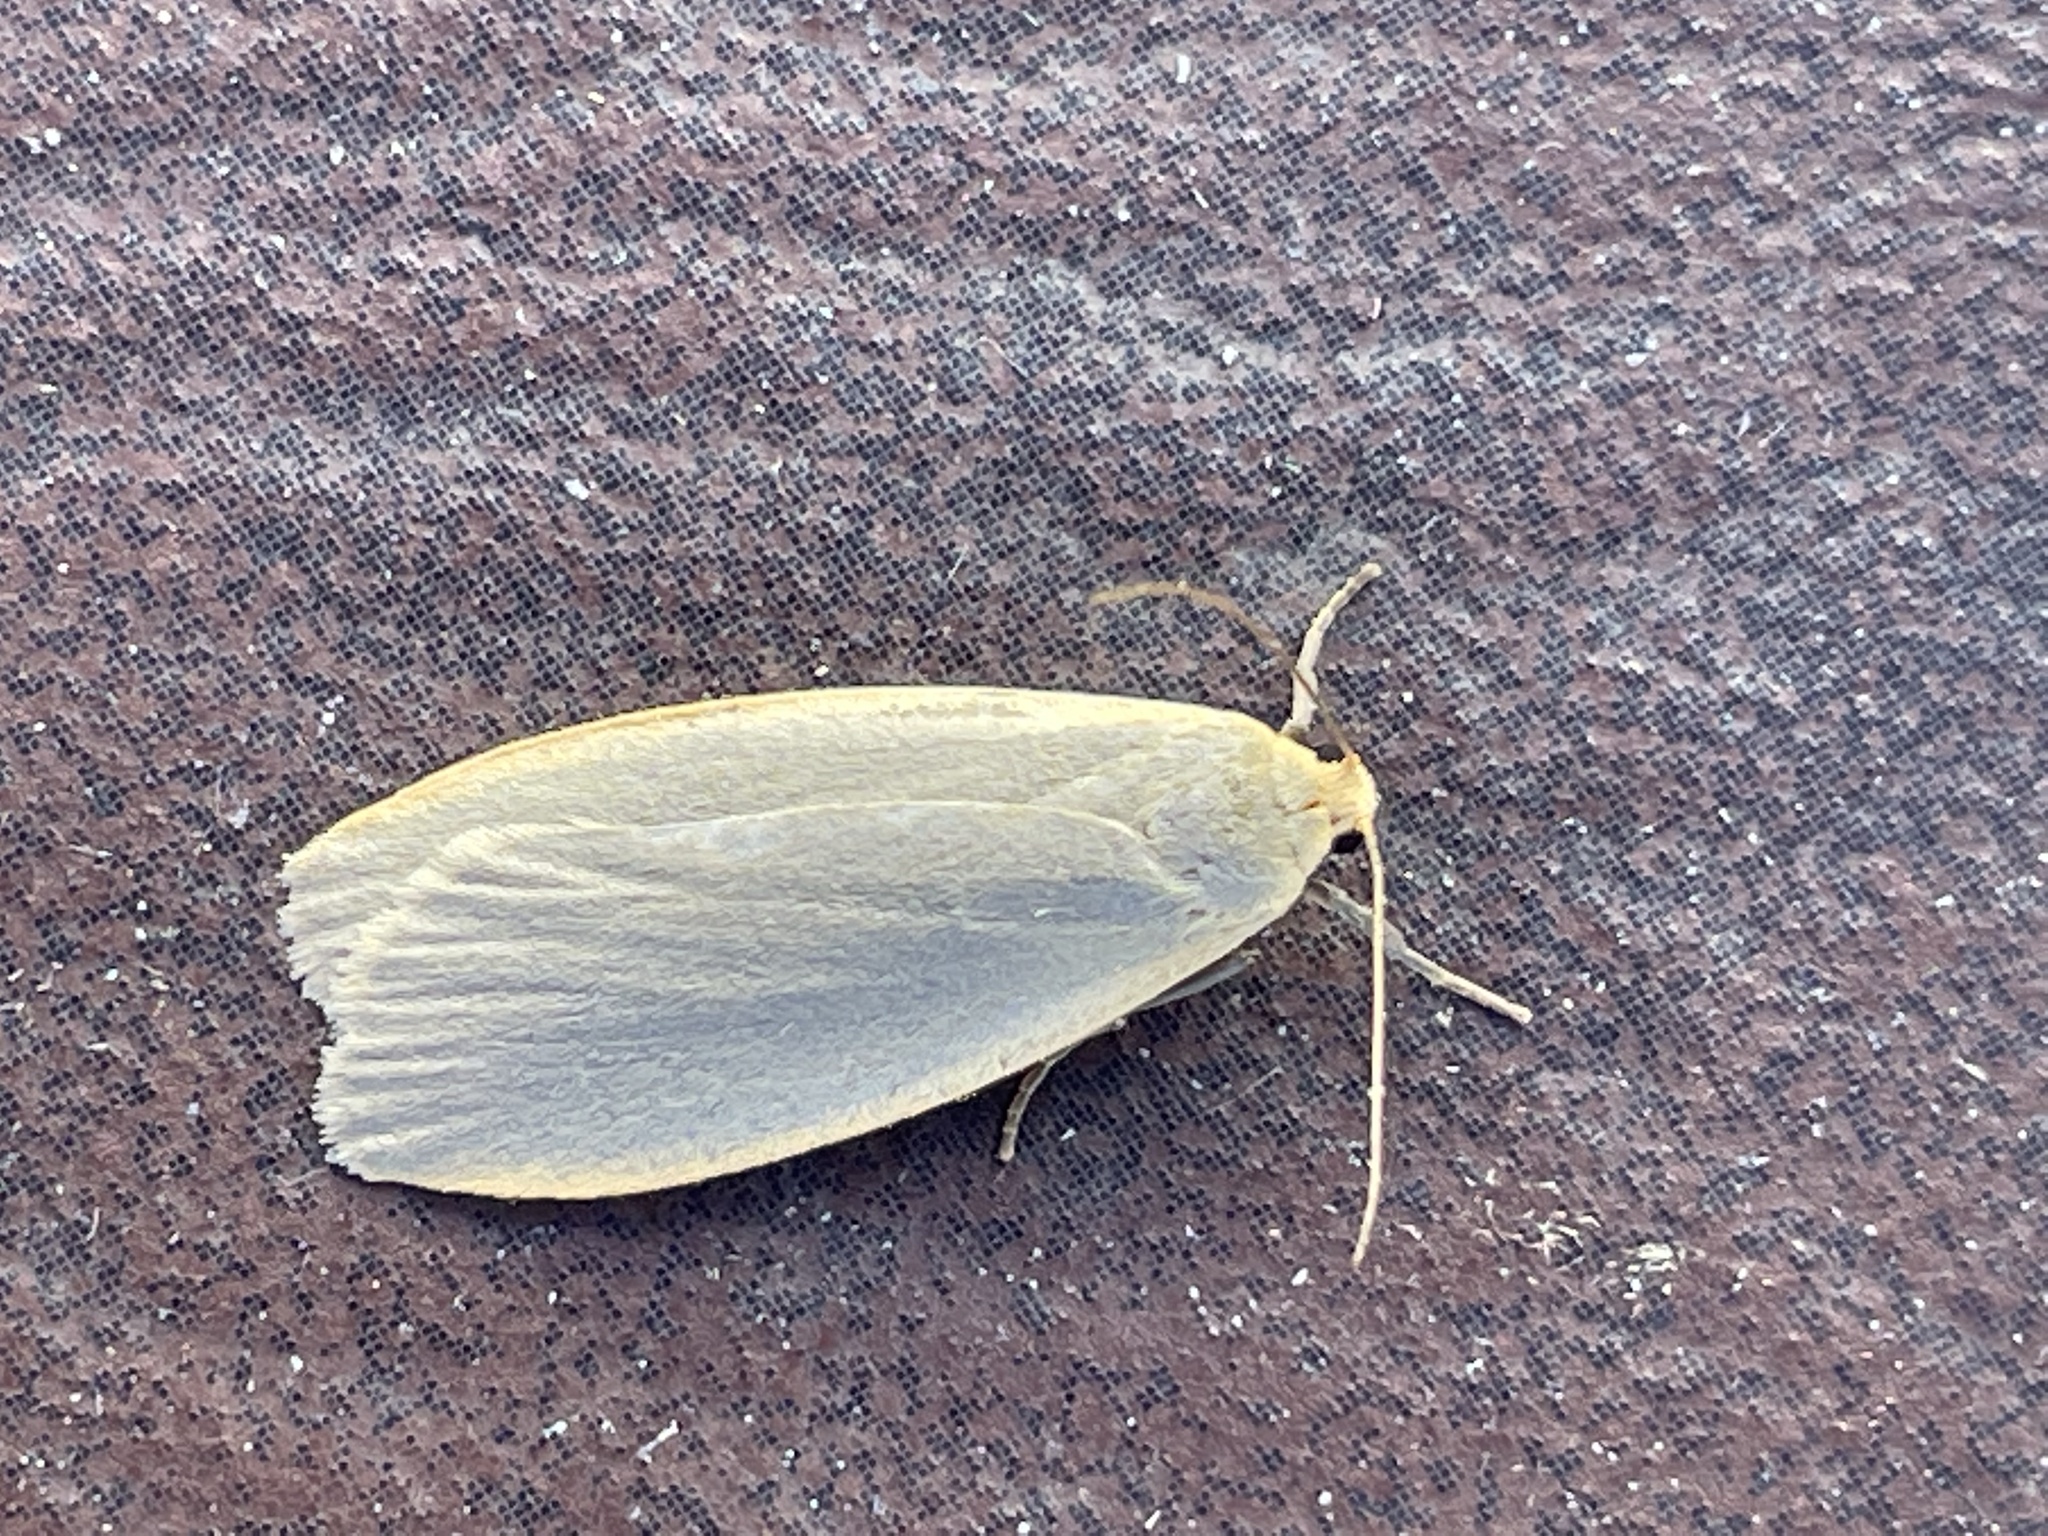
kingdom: Animalia
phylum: Arthropoda
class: Insecta
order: Lepidoptera
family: Erebidae
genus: Collita
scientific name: Collita griseola
